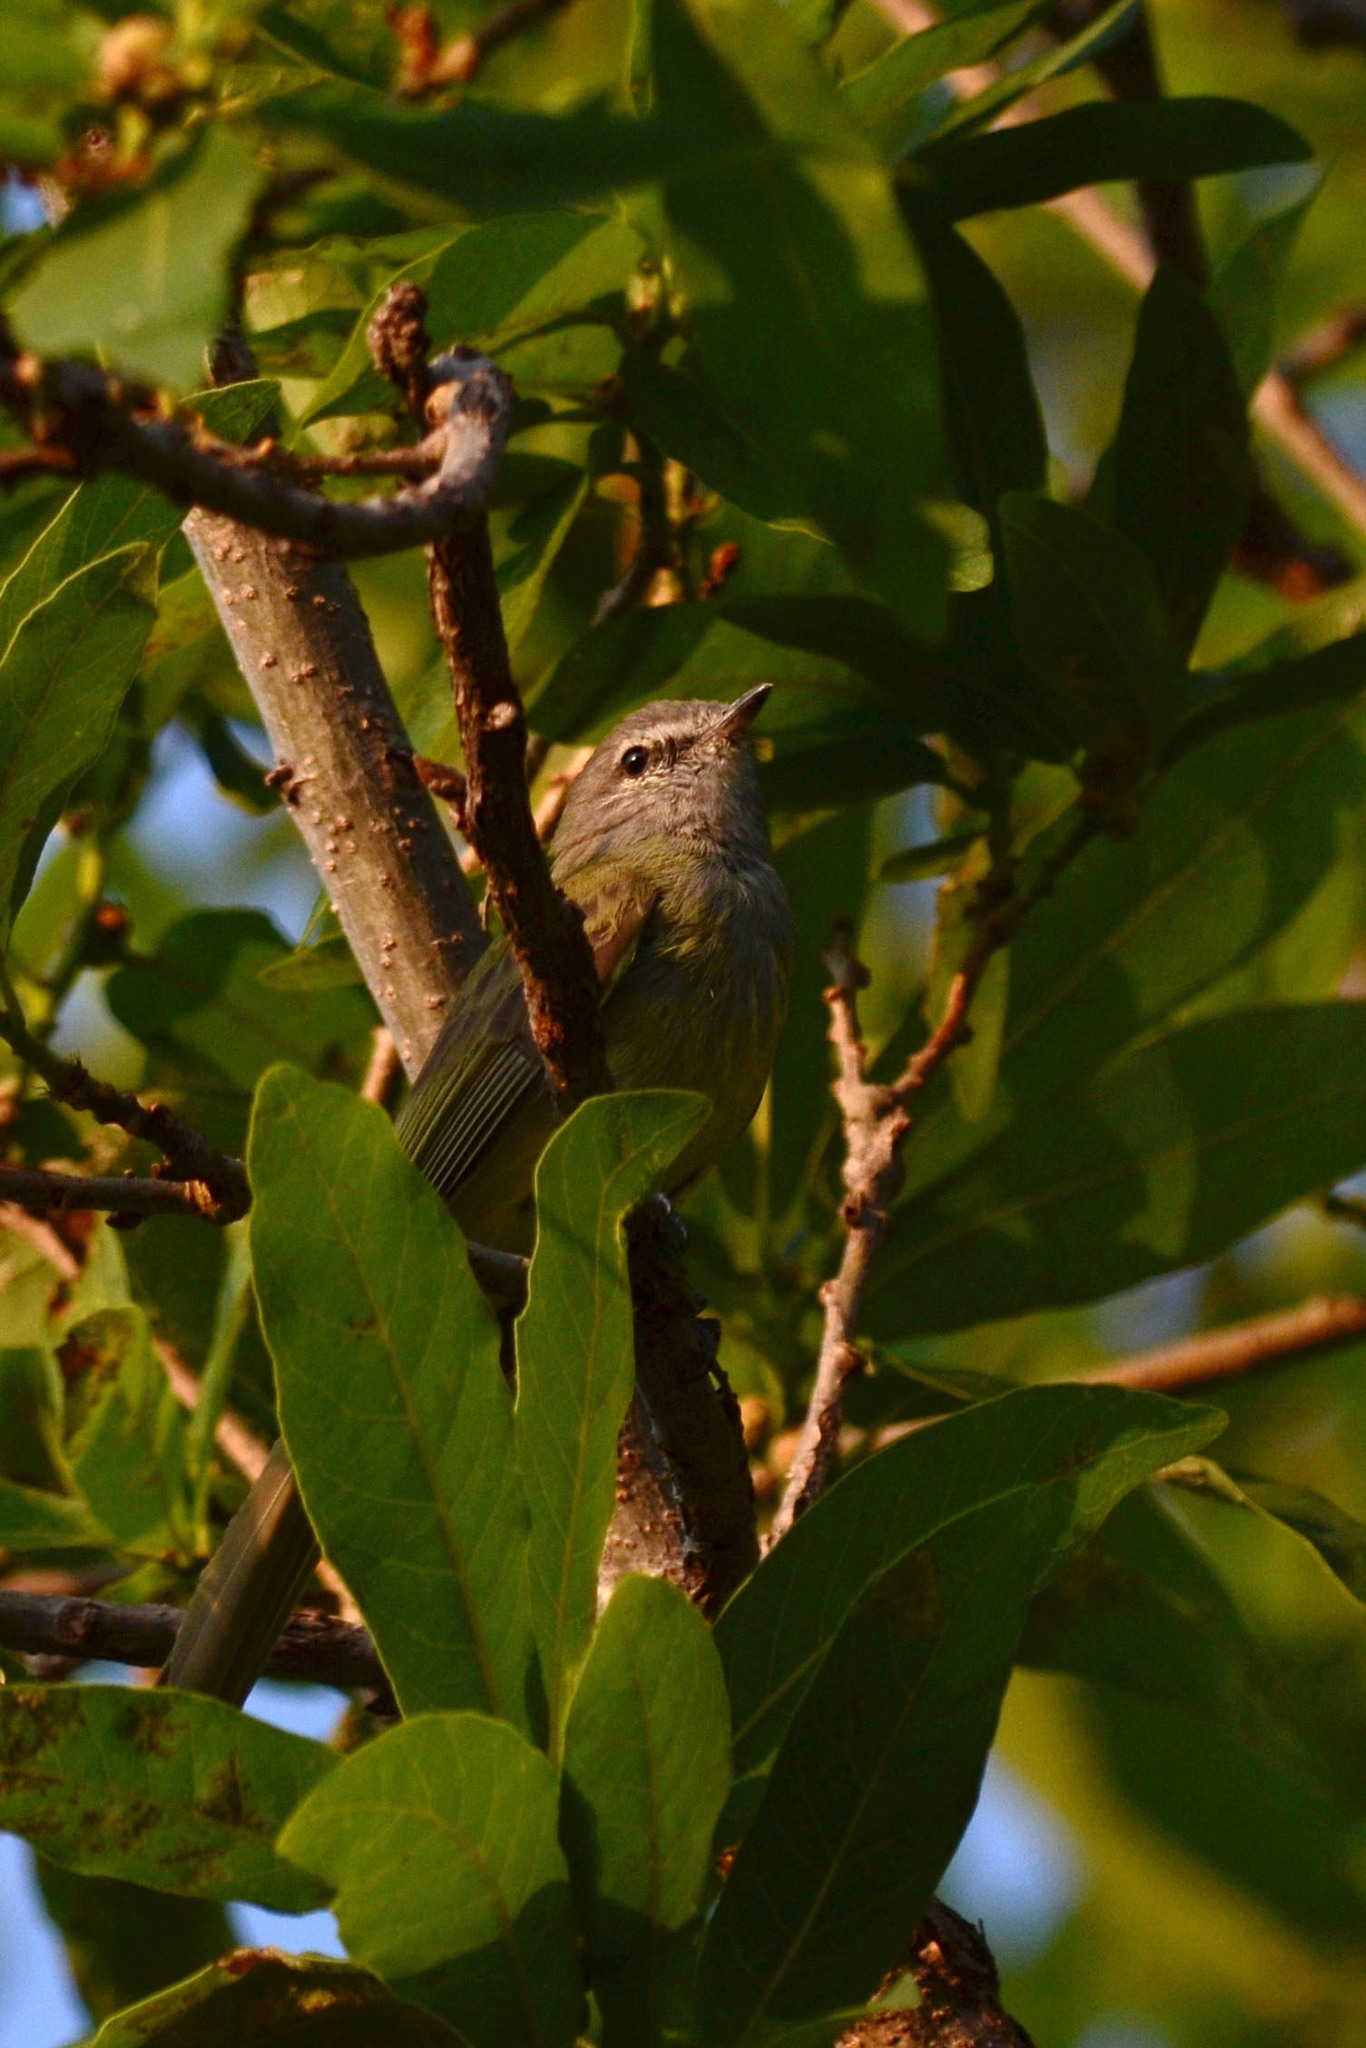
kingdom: Animalia
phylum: Chordata
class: Aves
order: Passeriformes
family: Tyrannidae
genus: Myiopagis
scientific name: Myiopagis viridicata
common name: Greenish elaenia
